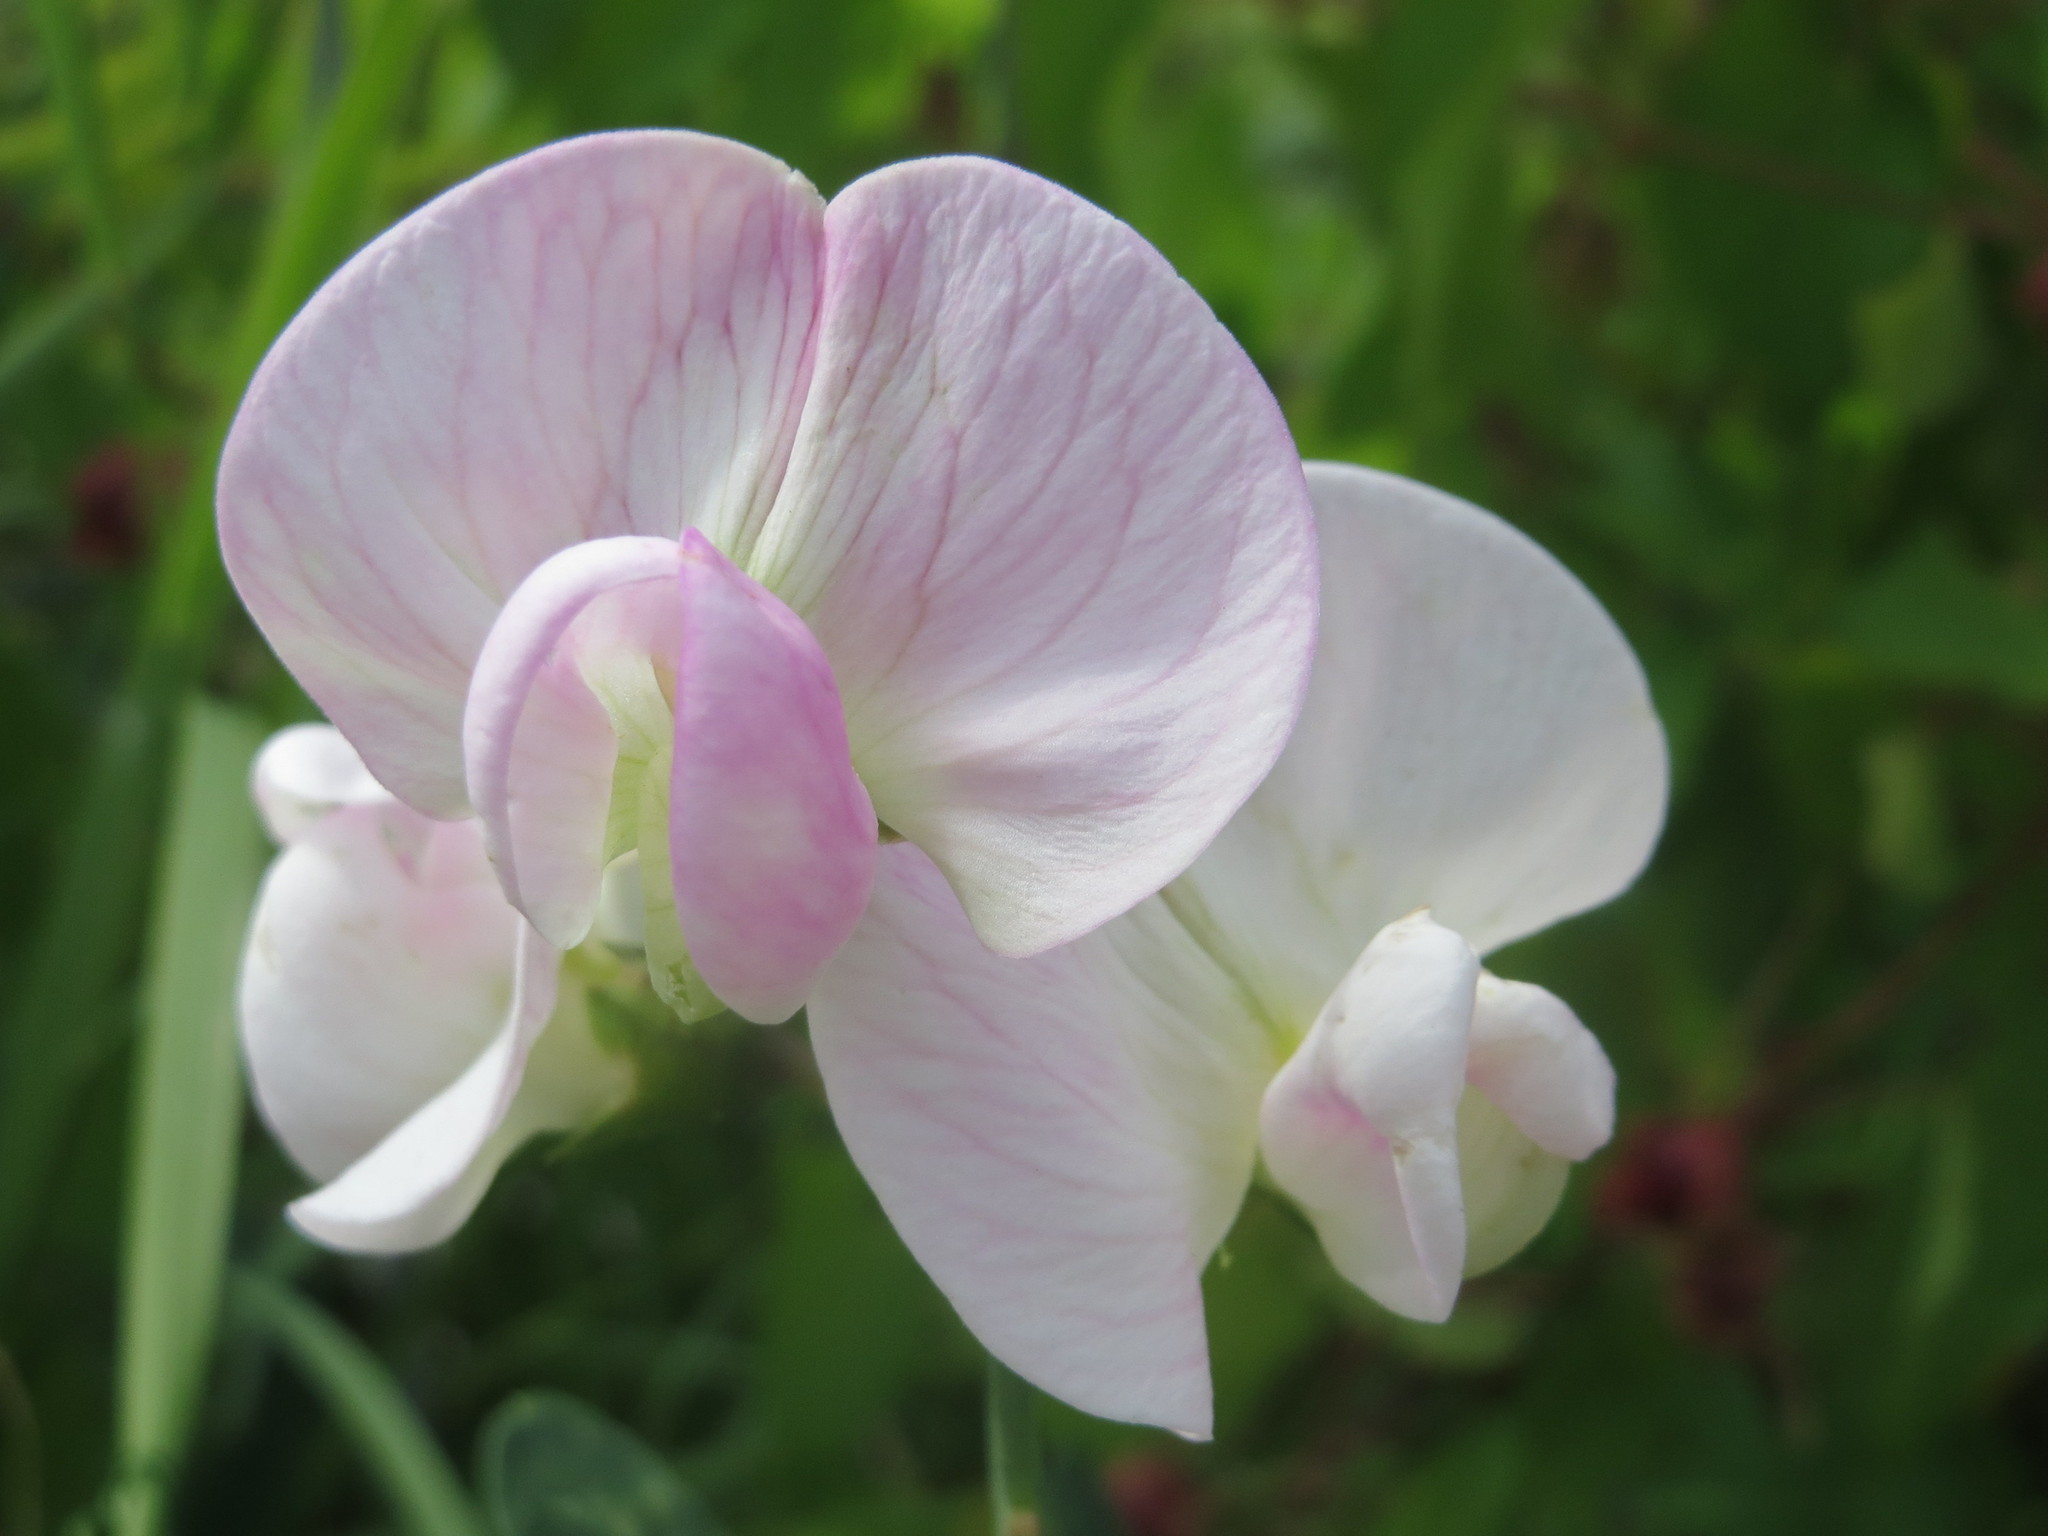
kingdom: Plantae
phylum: Tracheophyta
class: Magnoliopsida
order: Fabales
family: Fabaceae
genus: Lathyrus
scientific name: Lathyrus latifolius
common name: Perennial pea
